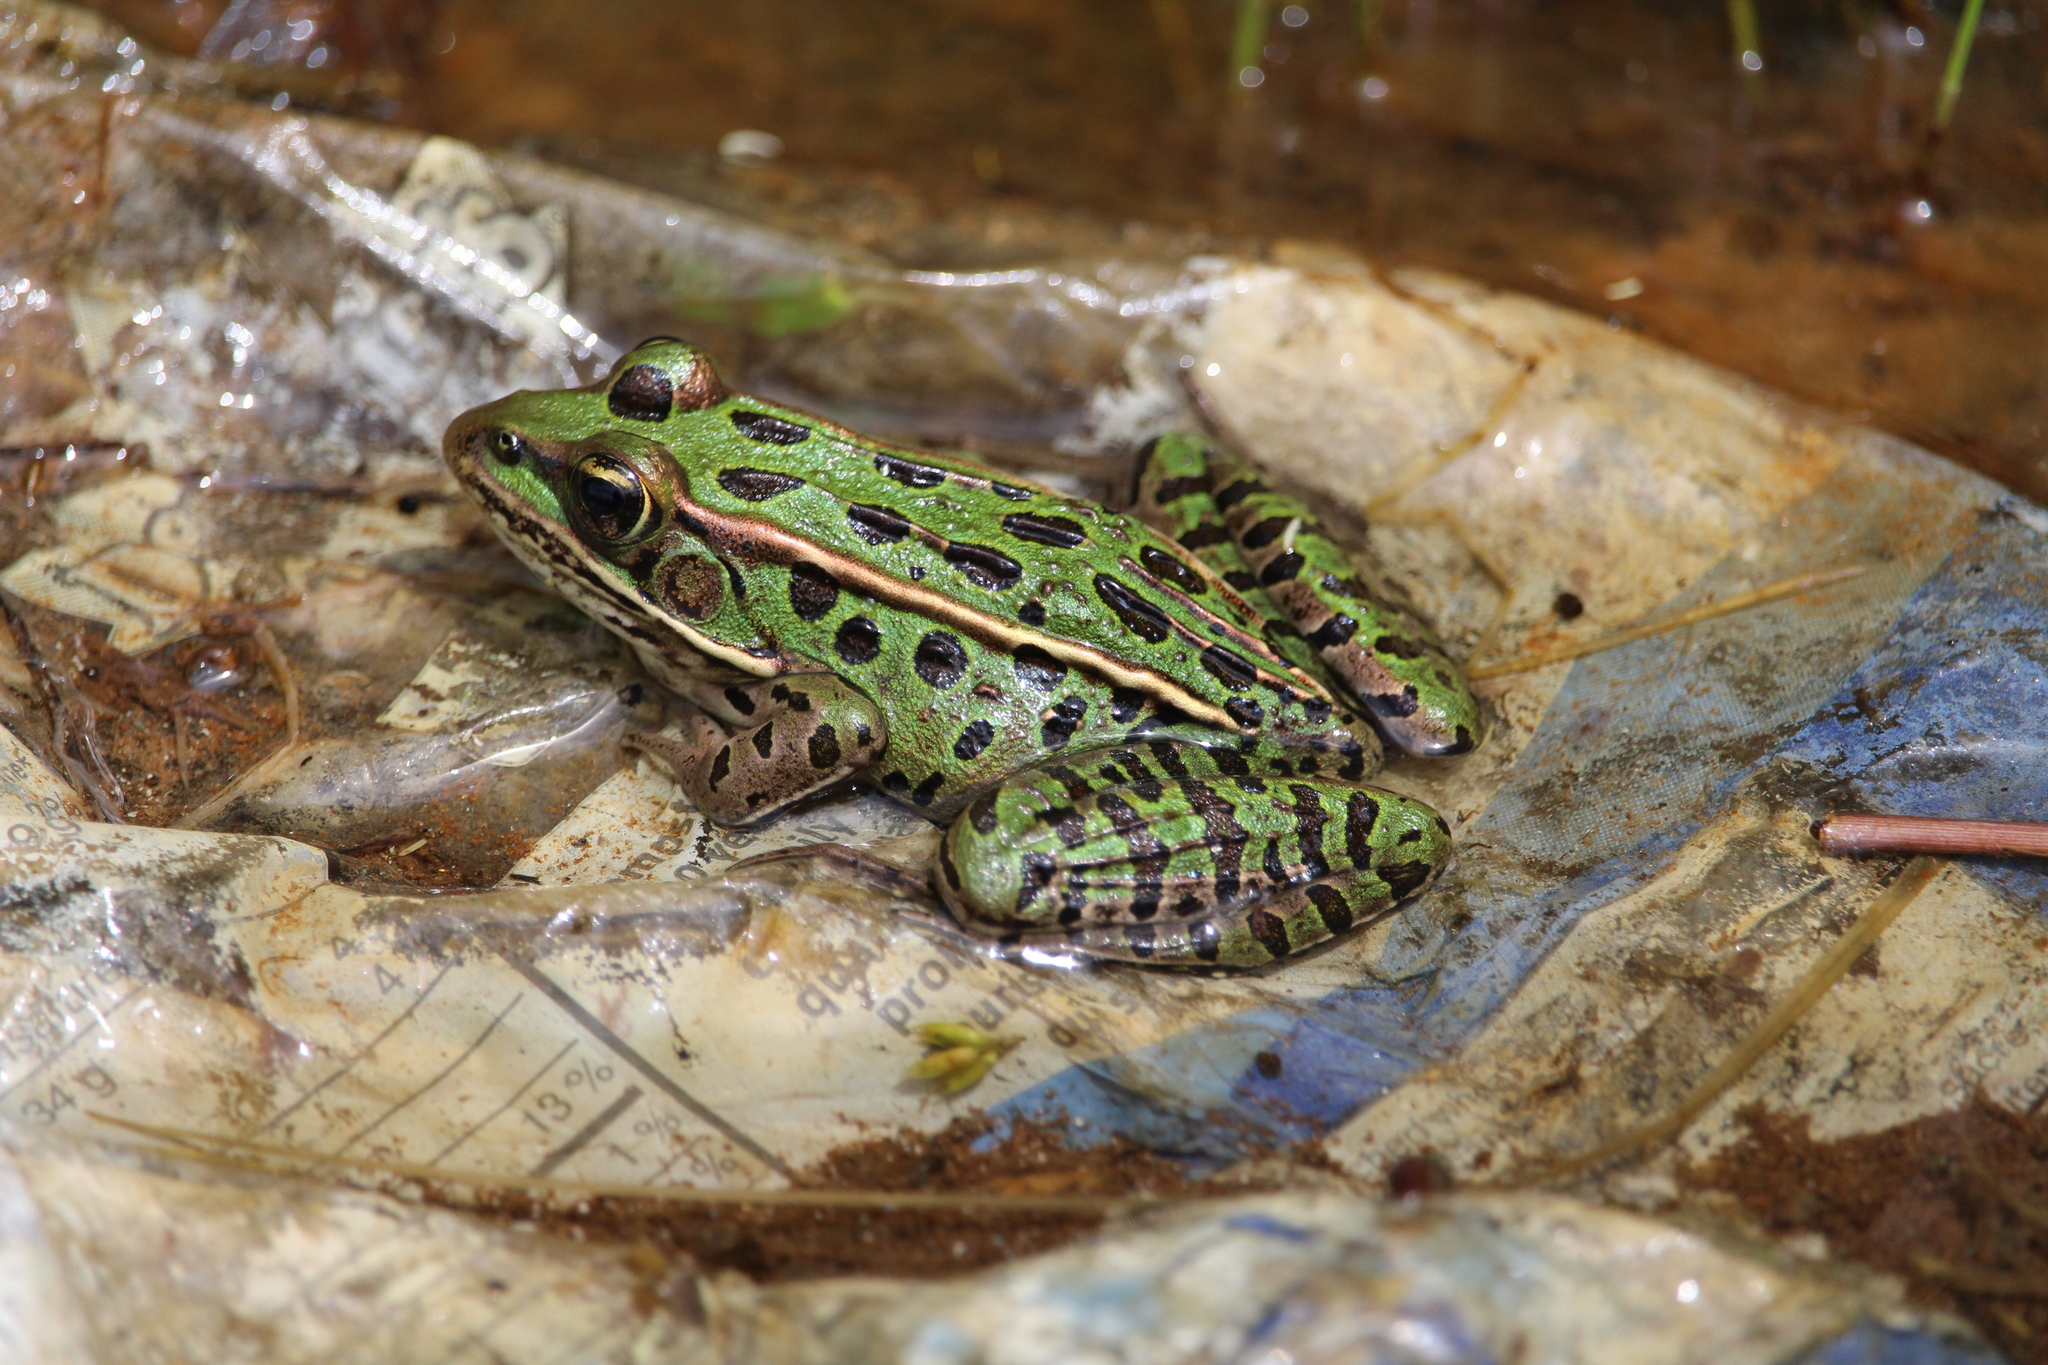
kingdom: Animalia
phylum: Chordata
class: Amphibia
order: Anura
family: Ranidae
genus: Lithobates
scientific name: Lithobates pipiens
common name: Northern leopard frog
